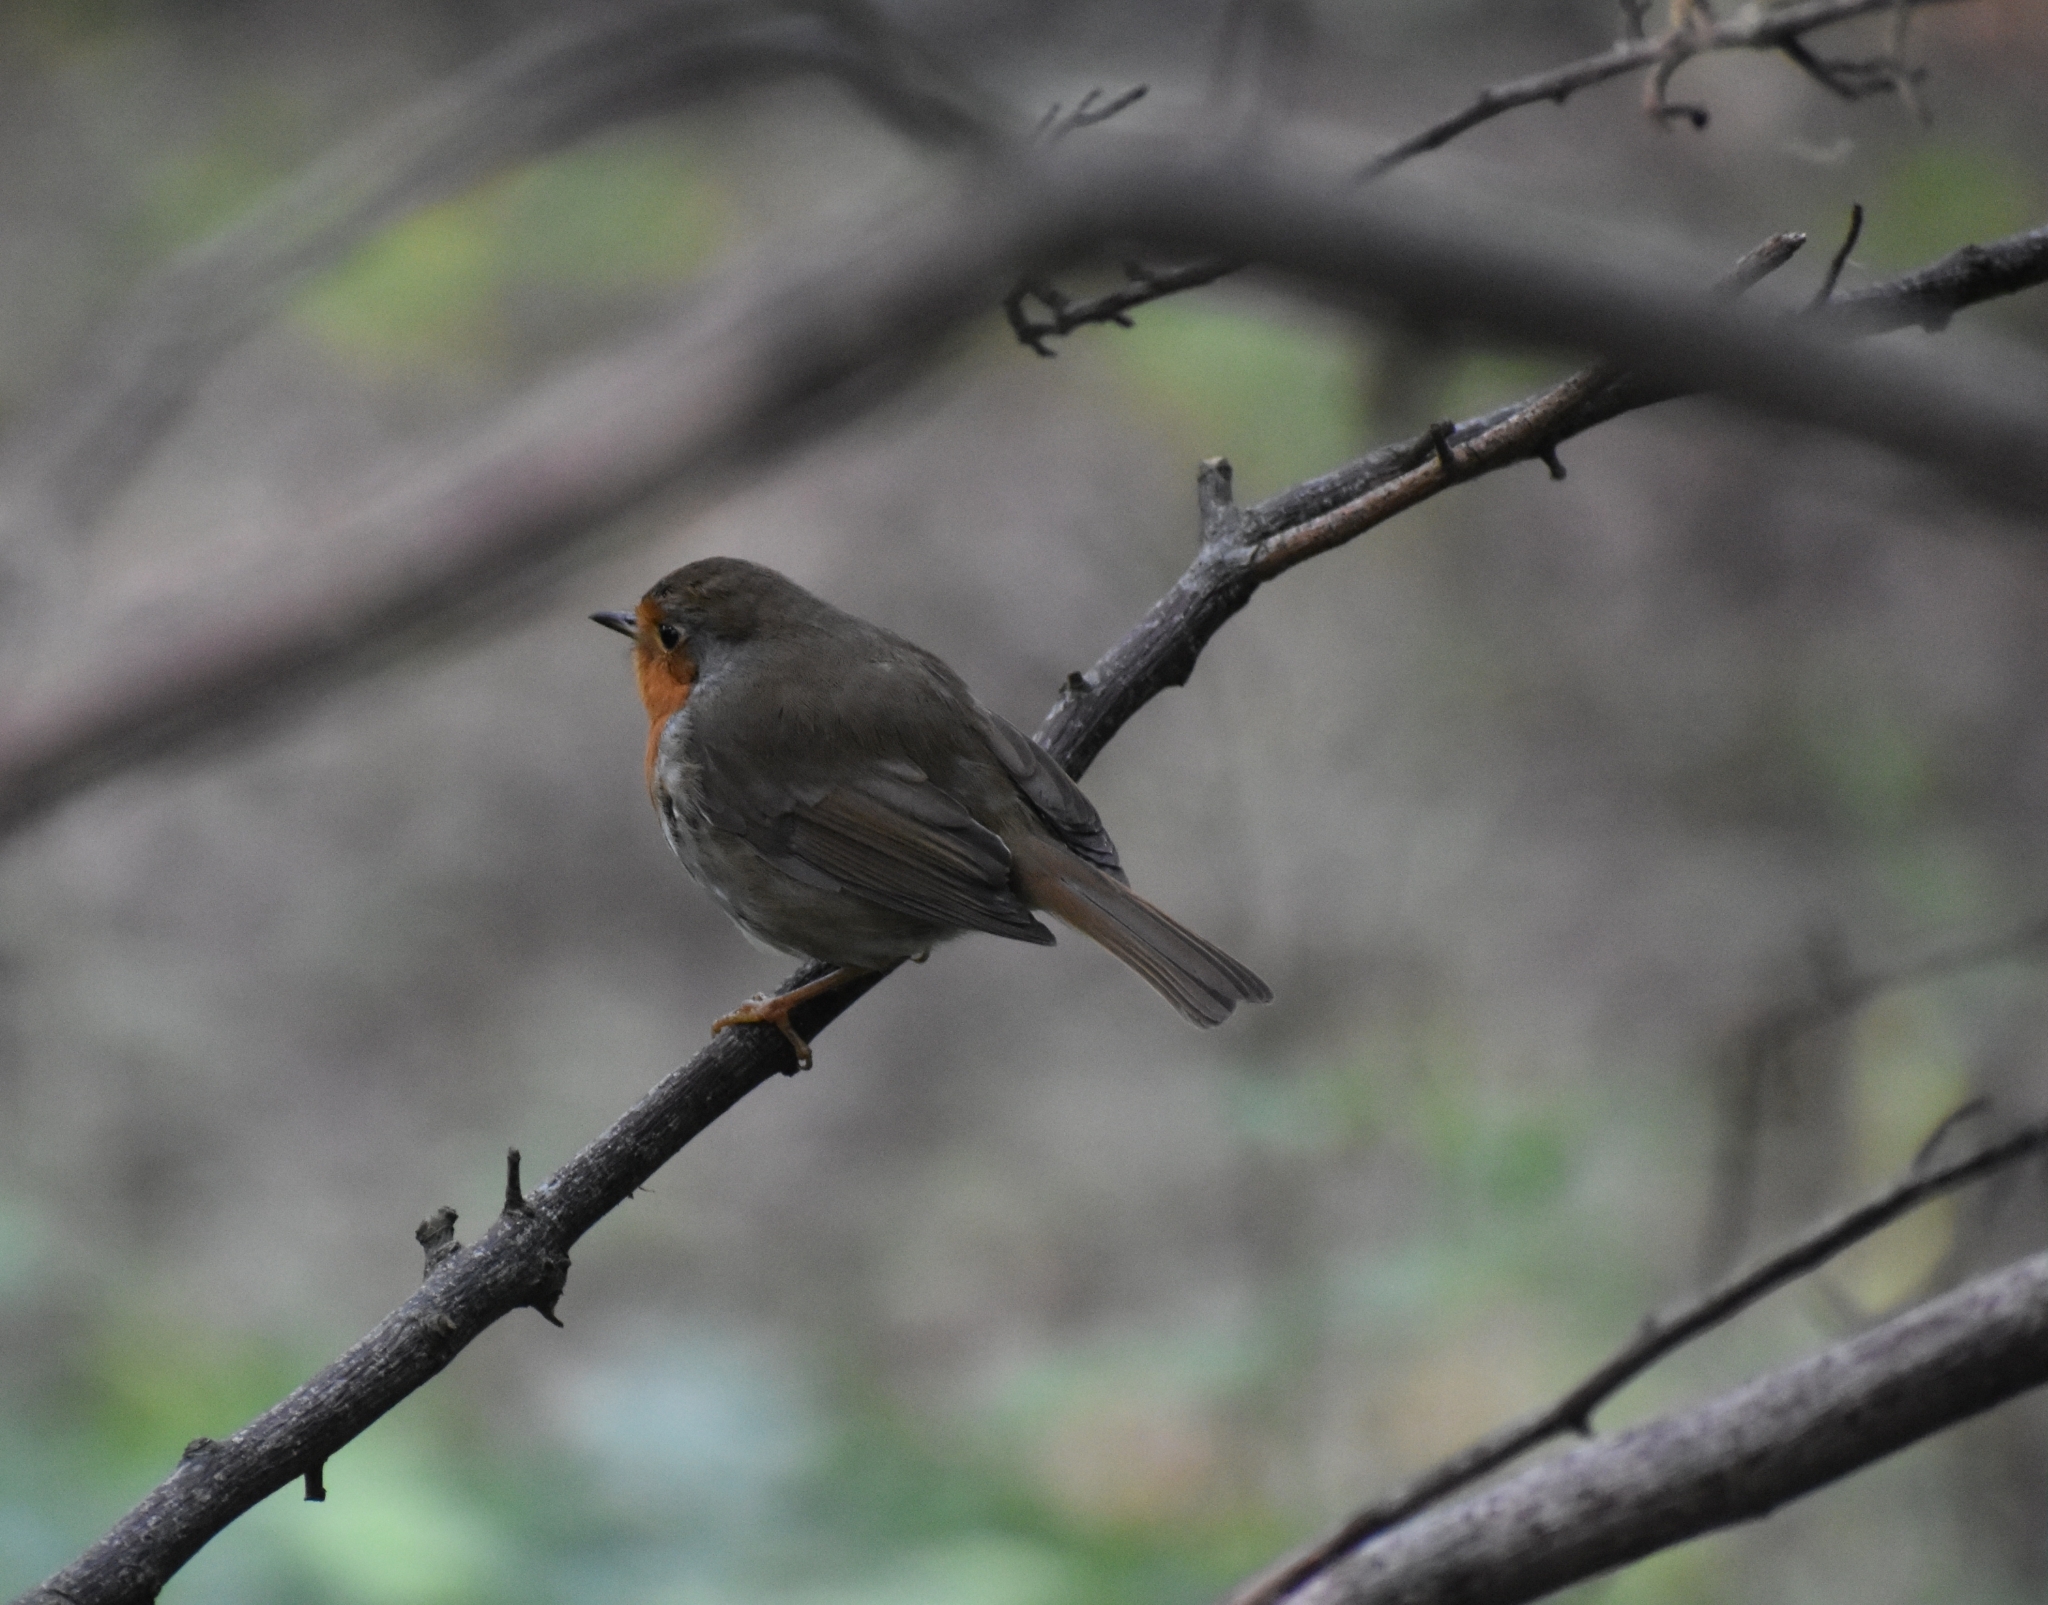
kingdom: Animalia
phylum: Chordata
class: Aves
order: Passeriformes
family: Muscicapidae
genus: Erithacus
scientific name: Erithacus rubecula
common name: European robin
